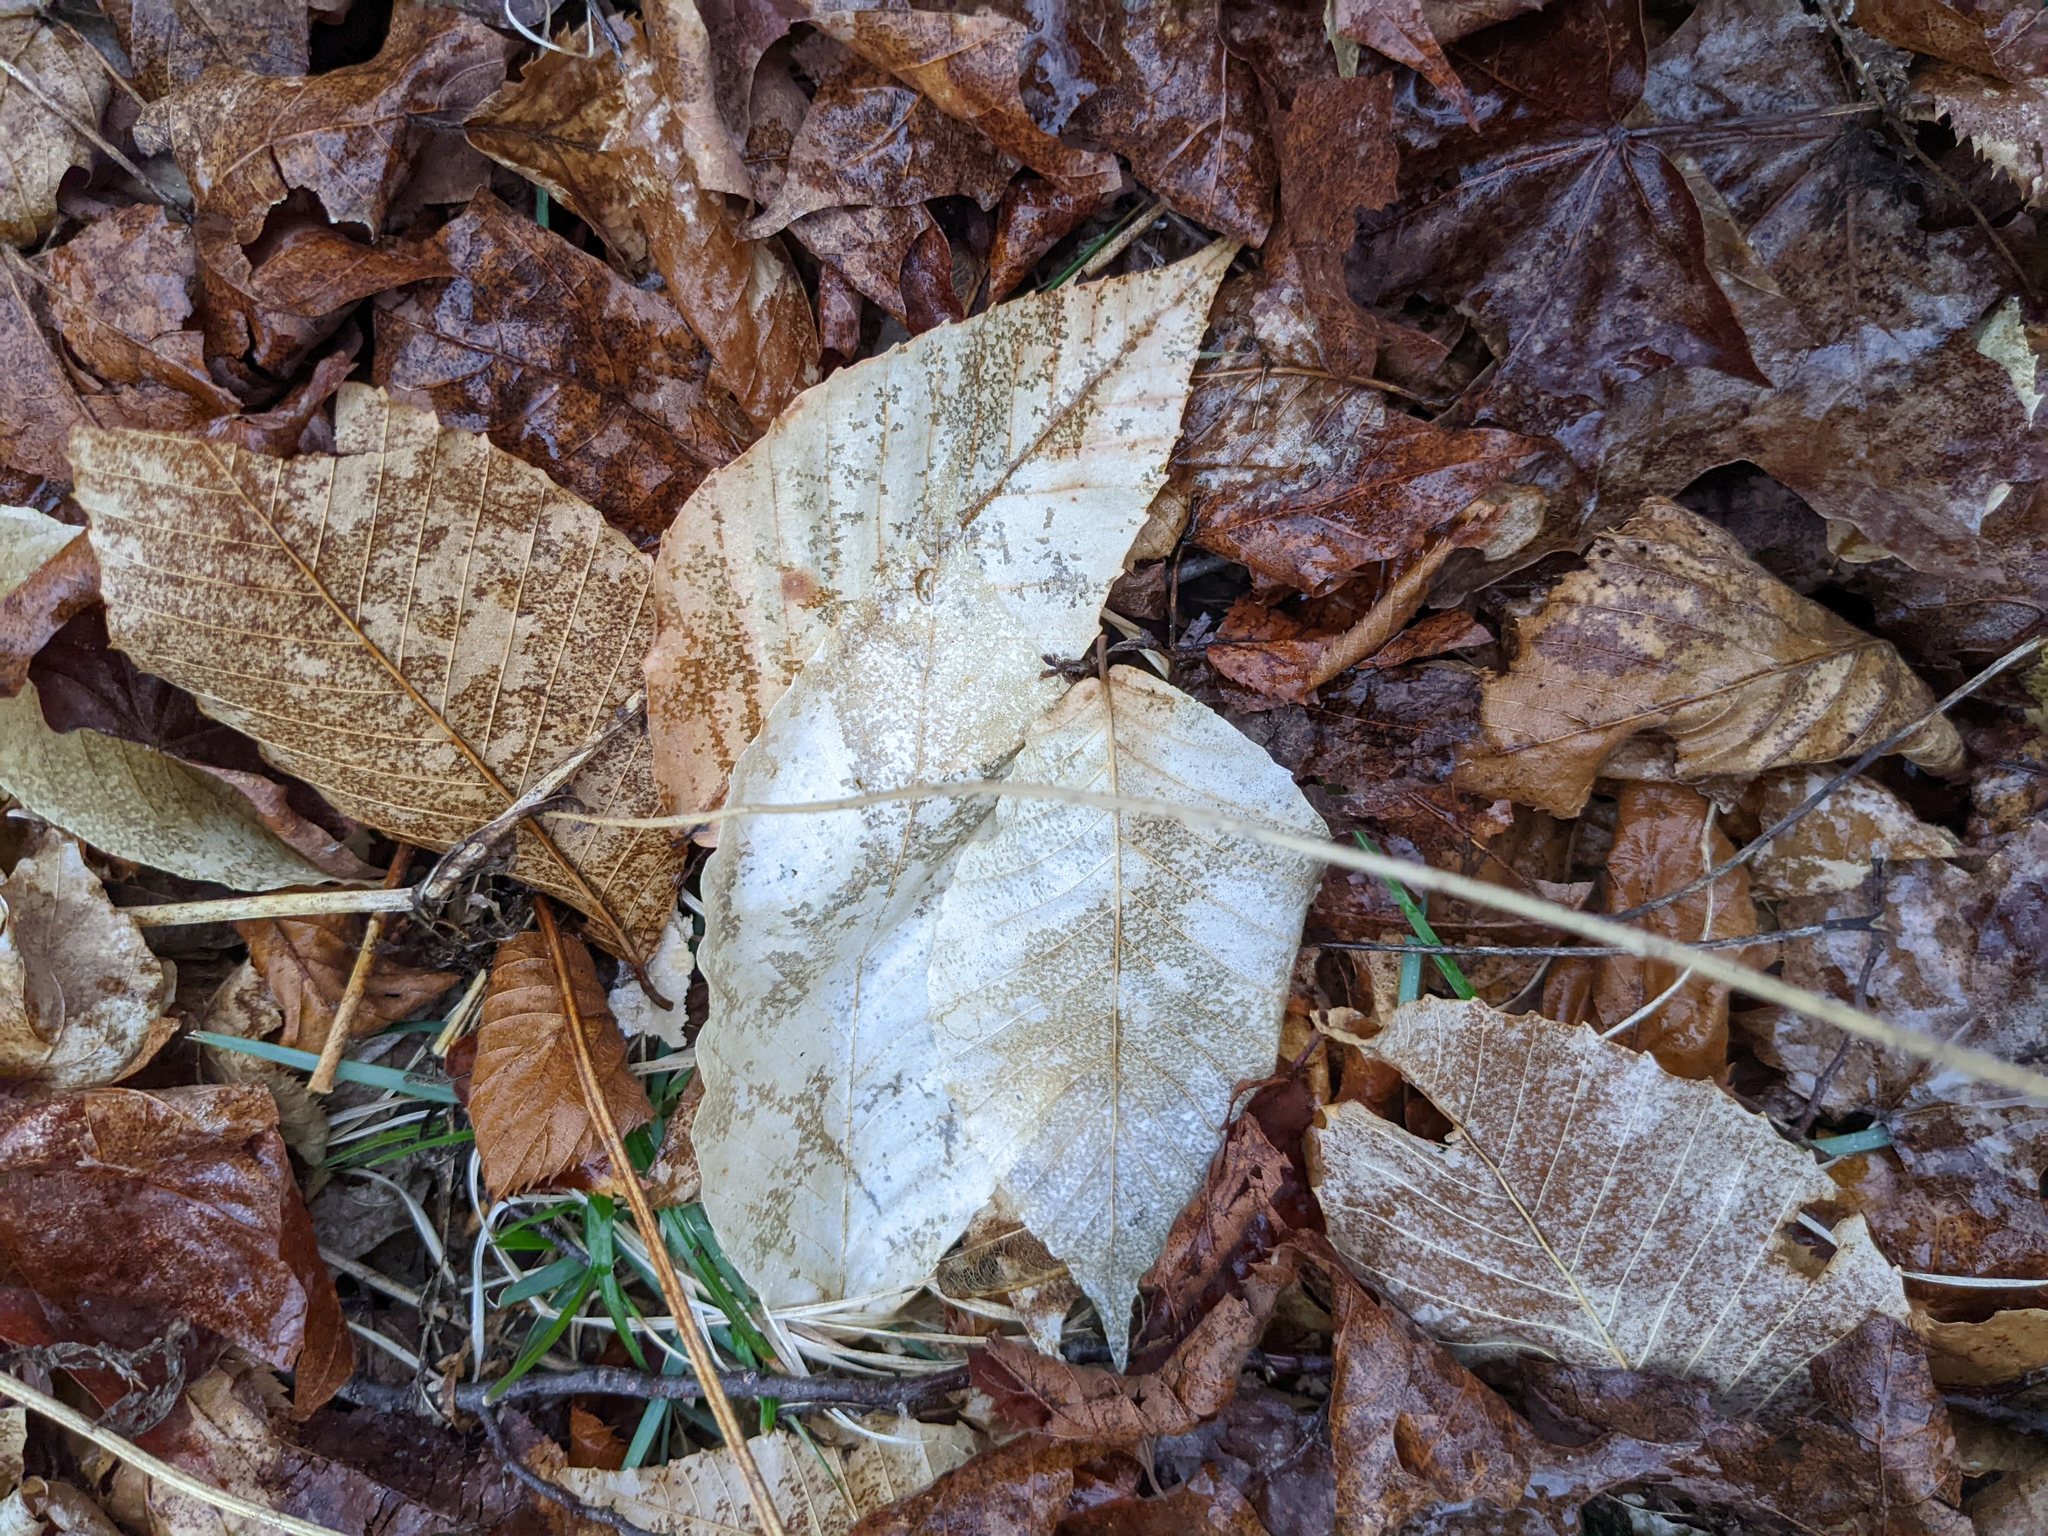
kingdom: Plantae
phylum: Tracheophyta
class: Magnoliopsida
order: Fagales
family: Fagaceae
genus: Fagus
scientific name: Fagus grandifolia
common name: American beech
